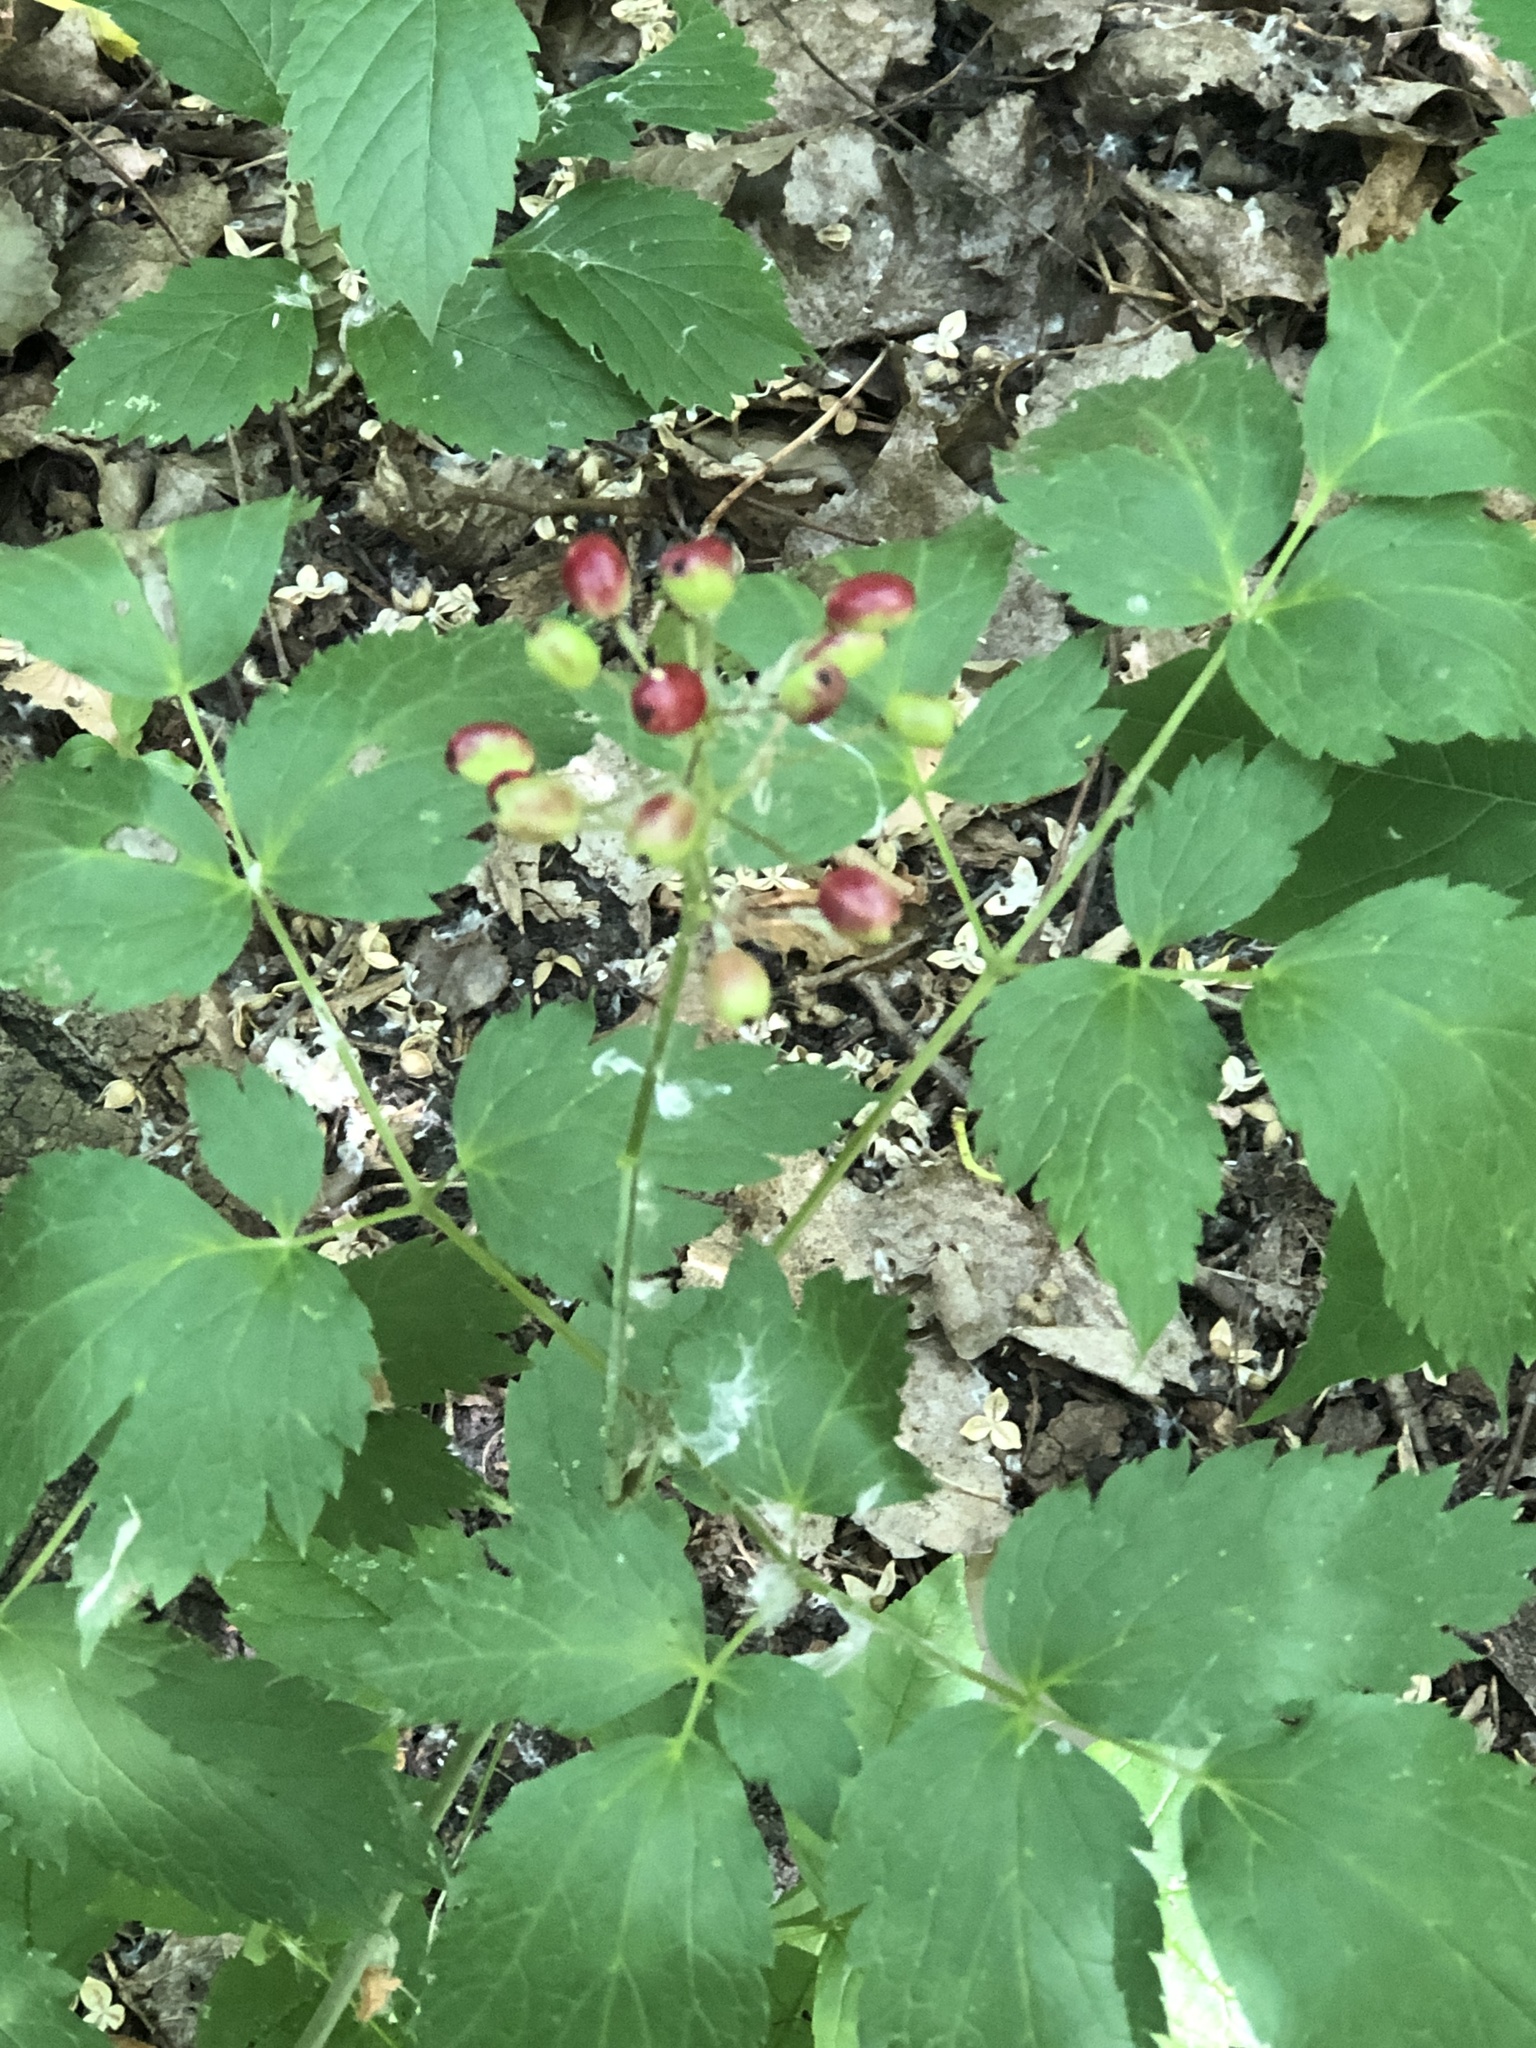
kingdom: Plantae
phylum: Tracheophyta
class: Magnoliopsida
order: Ranunculales
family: Ranunculaceae
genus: Actaea
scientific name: Actaea rubra
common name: Red baneberry
